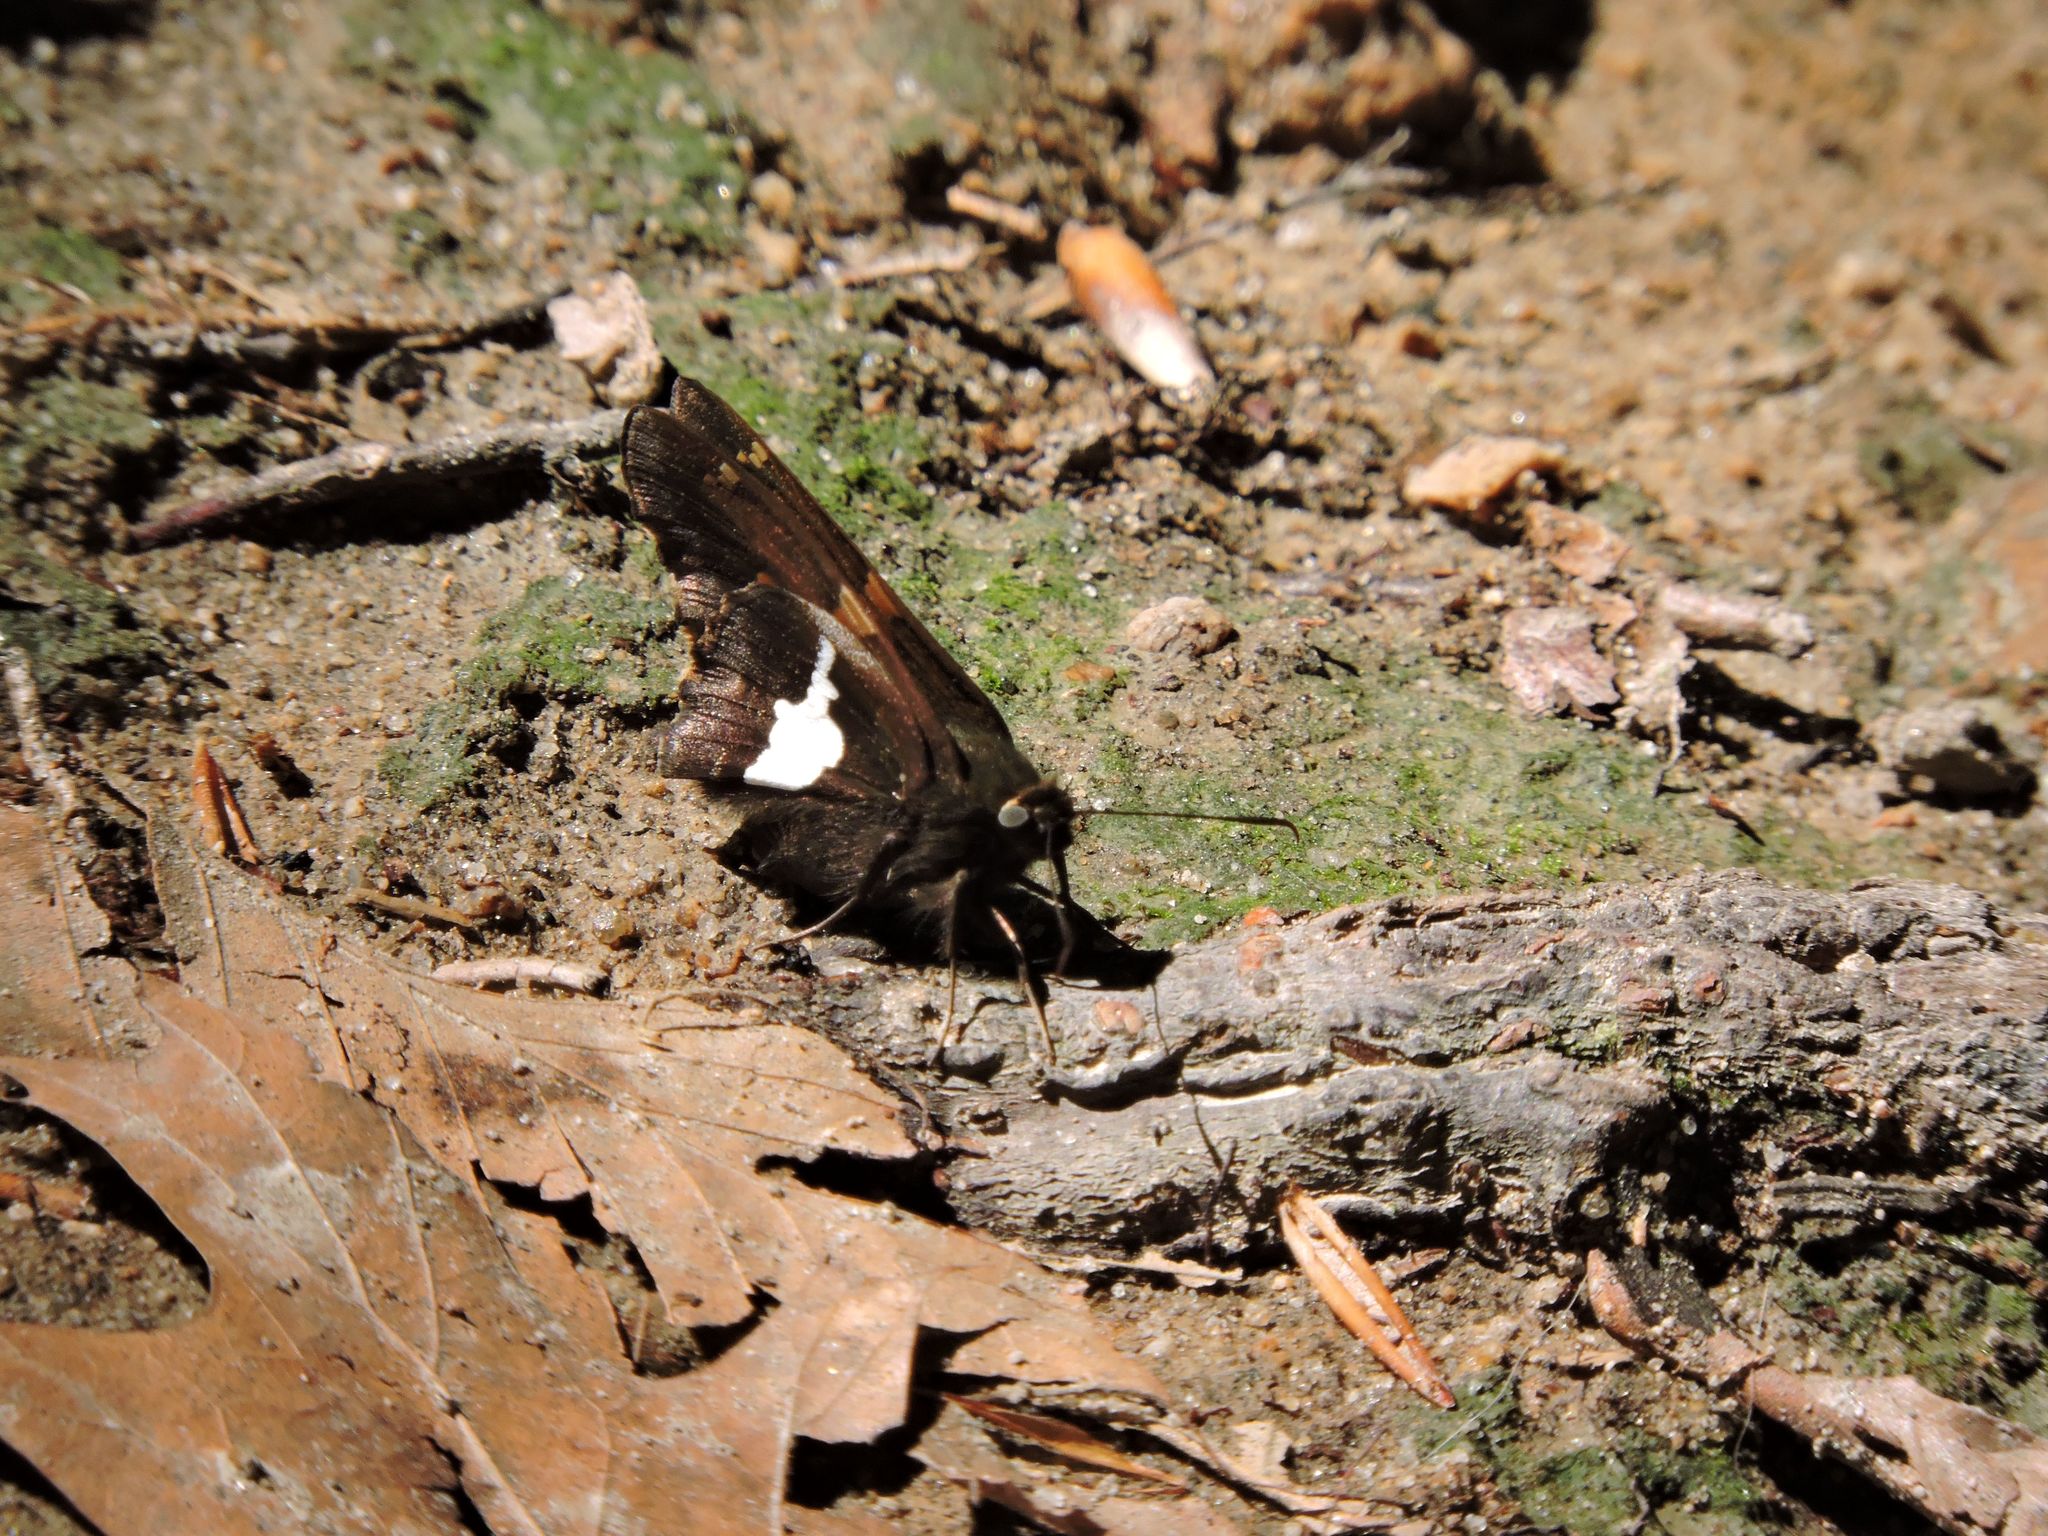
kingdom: Animalia
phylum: Arthropoda
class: Insecta
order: Lepidoptera
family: Hesperiidae
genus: Epargyreus
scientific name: Epargyreus clarus
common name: Silver-spotted skipper
